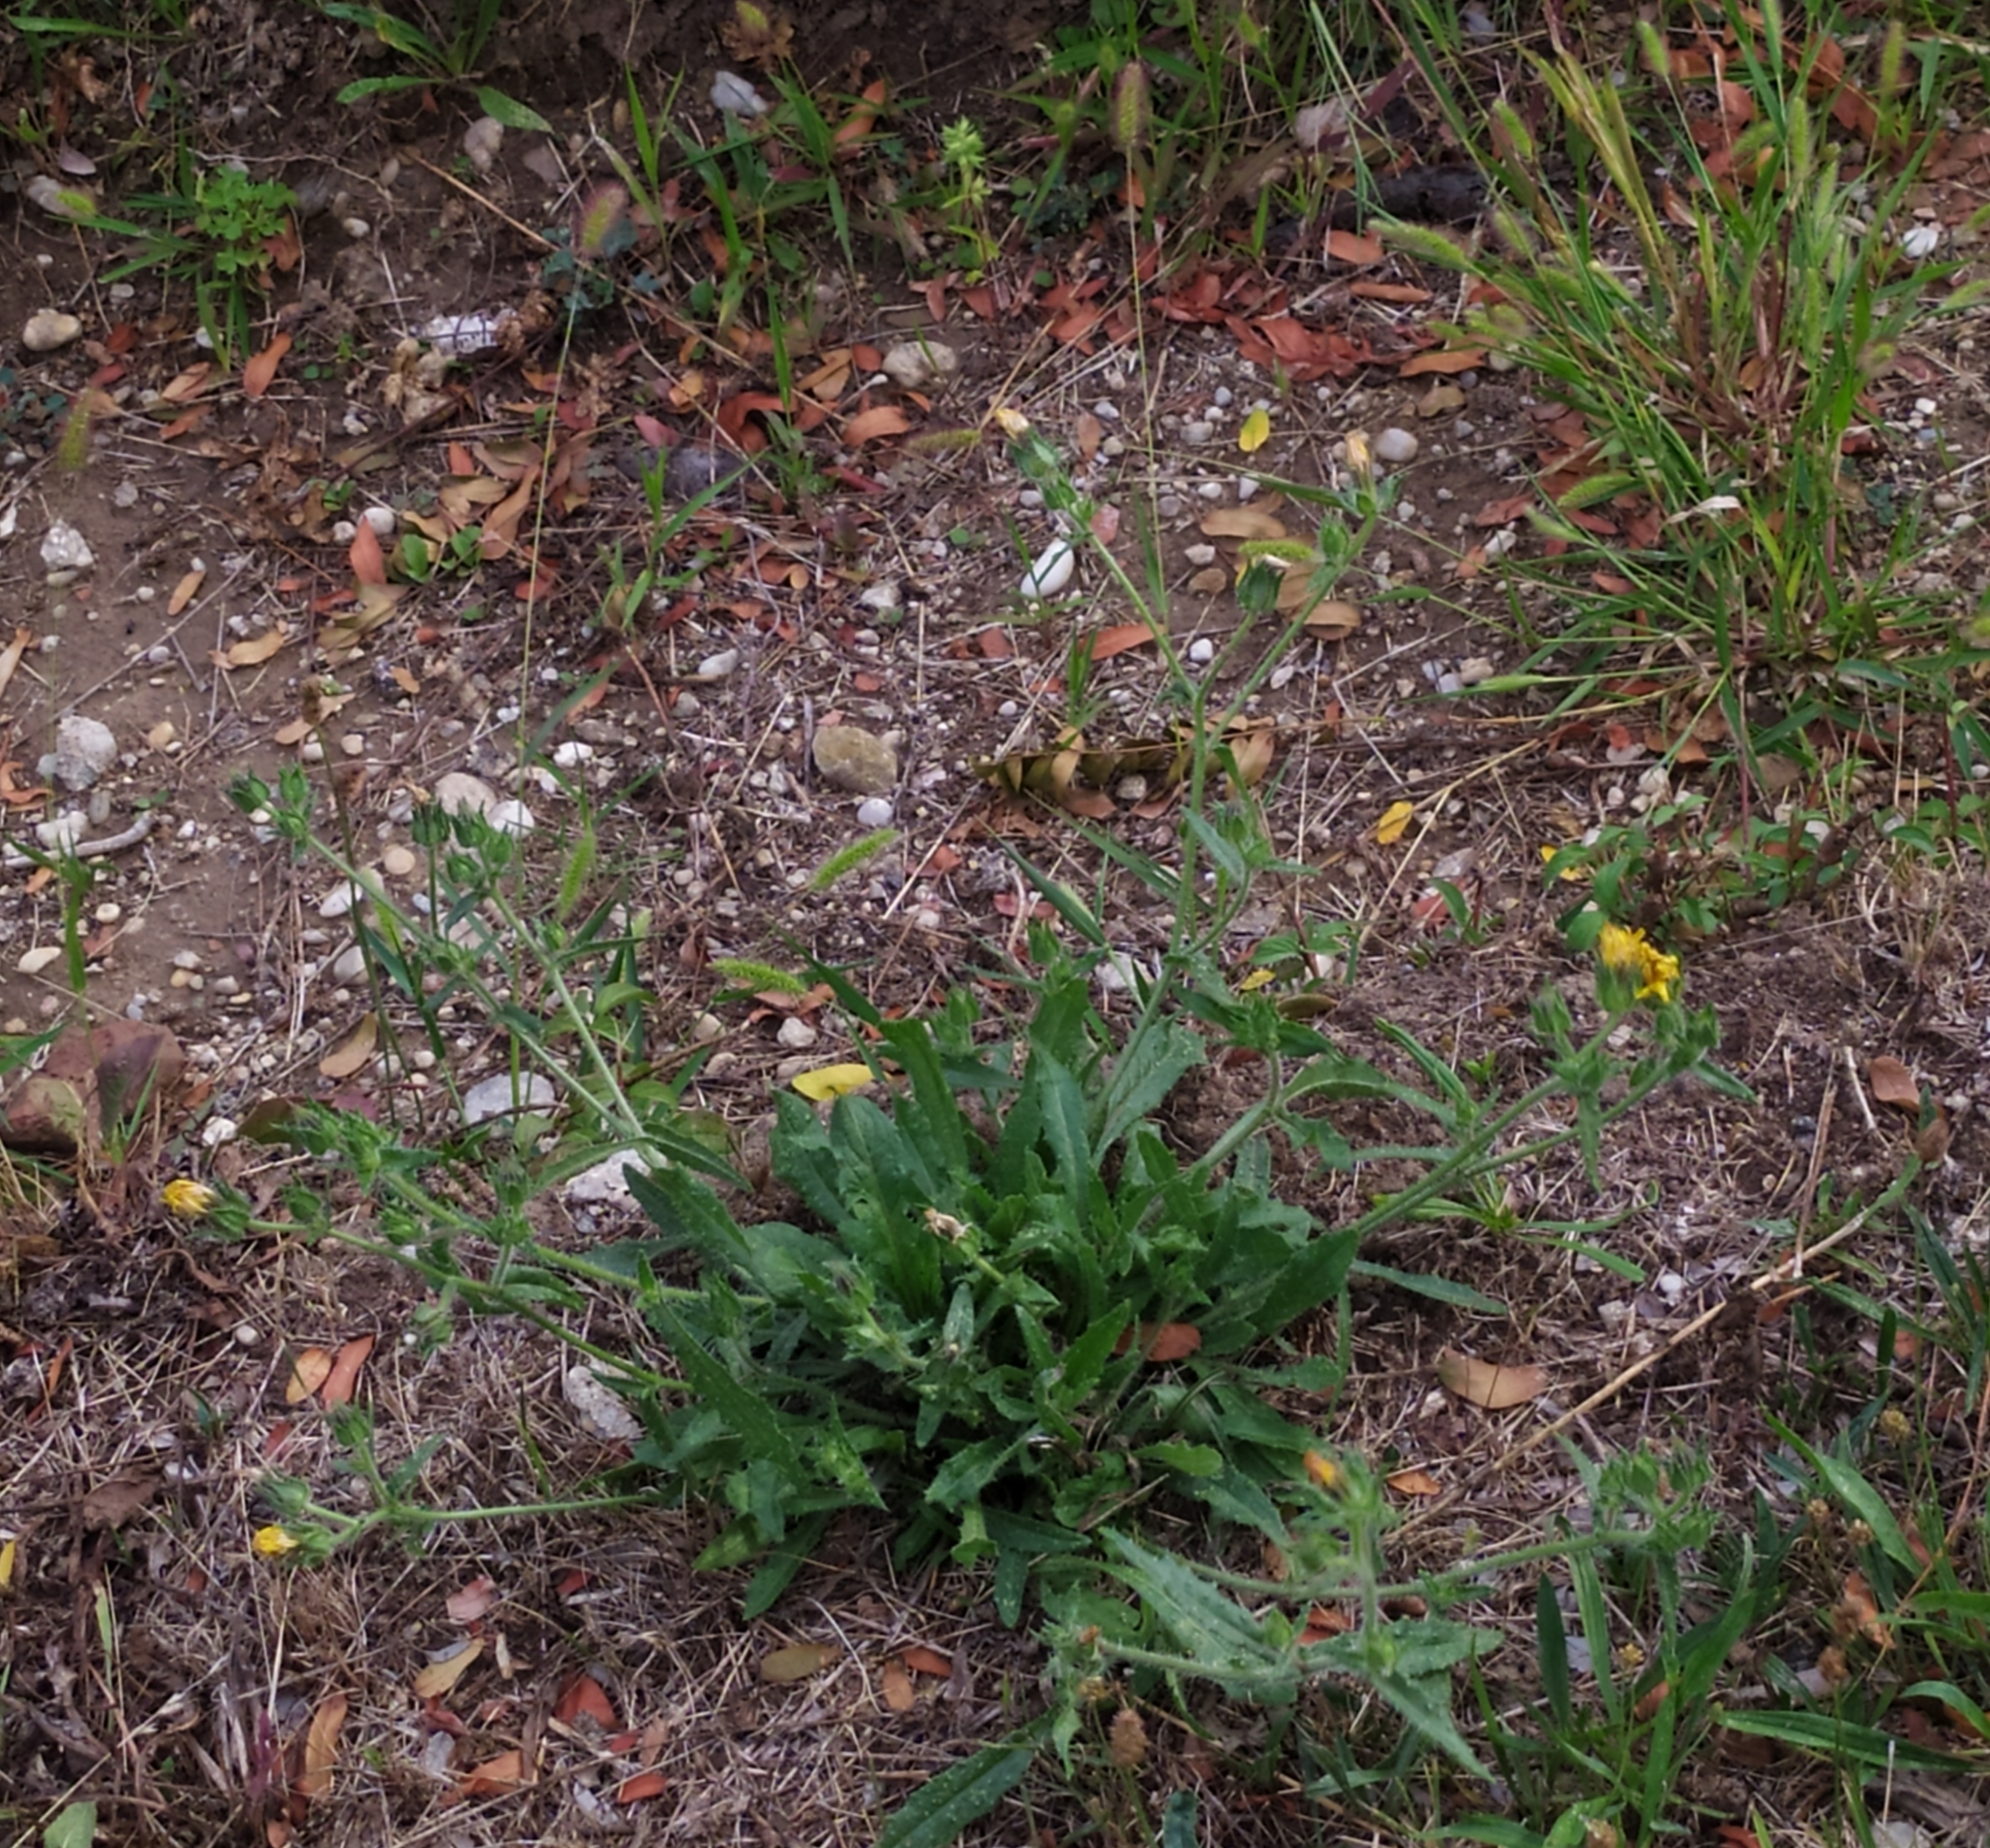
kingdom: Plantae
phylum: Tracheophyta
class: Magnoliopsida
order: Asterales
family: Asteraceae
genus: Helminthotheca
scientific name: Helminthotheca echioides
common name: Ox-tongue
